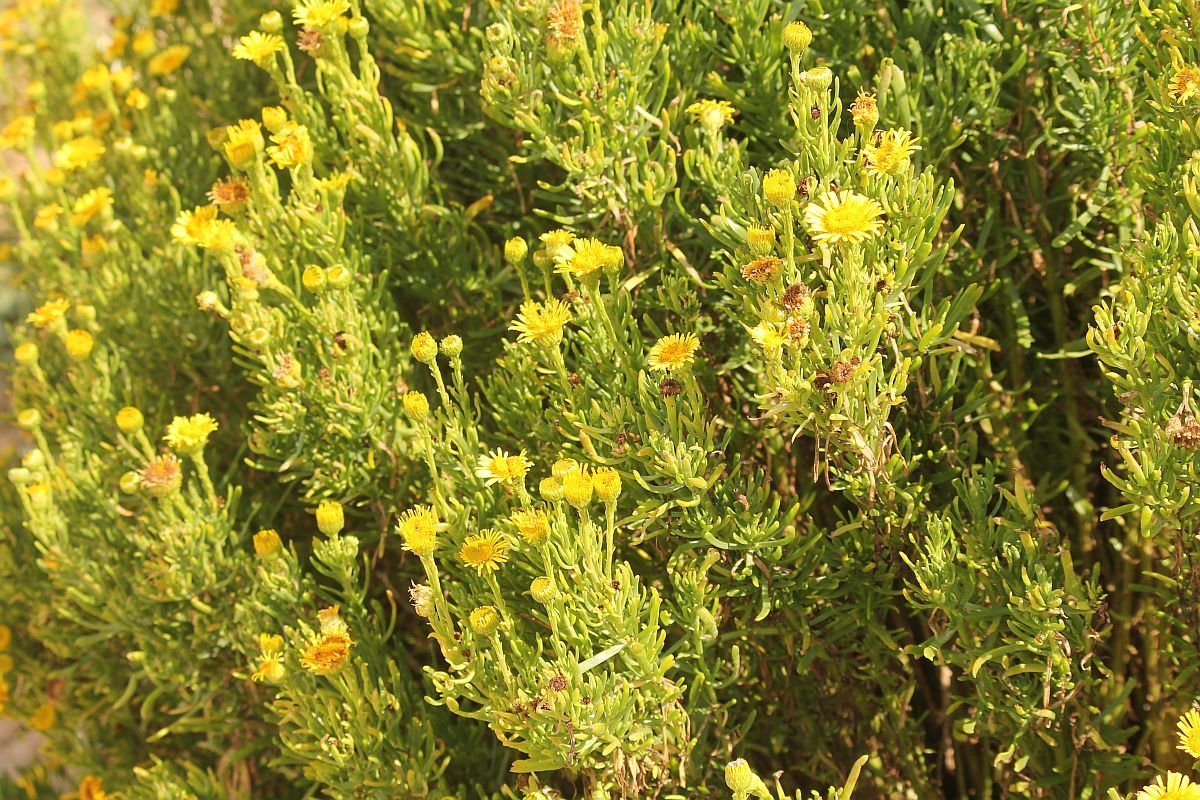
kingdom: Plantae
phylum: Tracheophyta
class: Magnoliopsida
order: Asterales
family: Asteraceae
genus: Limbarda
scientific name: Limbarda crithmoides
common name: Golden samphire
